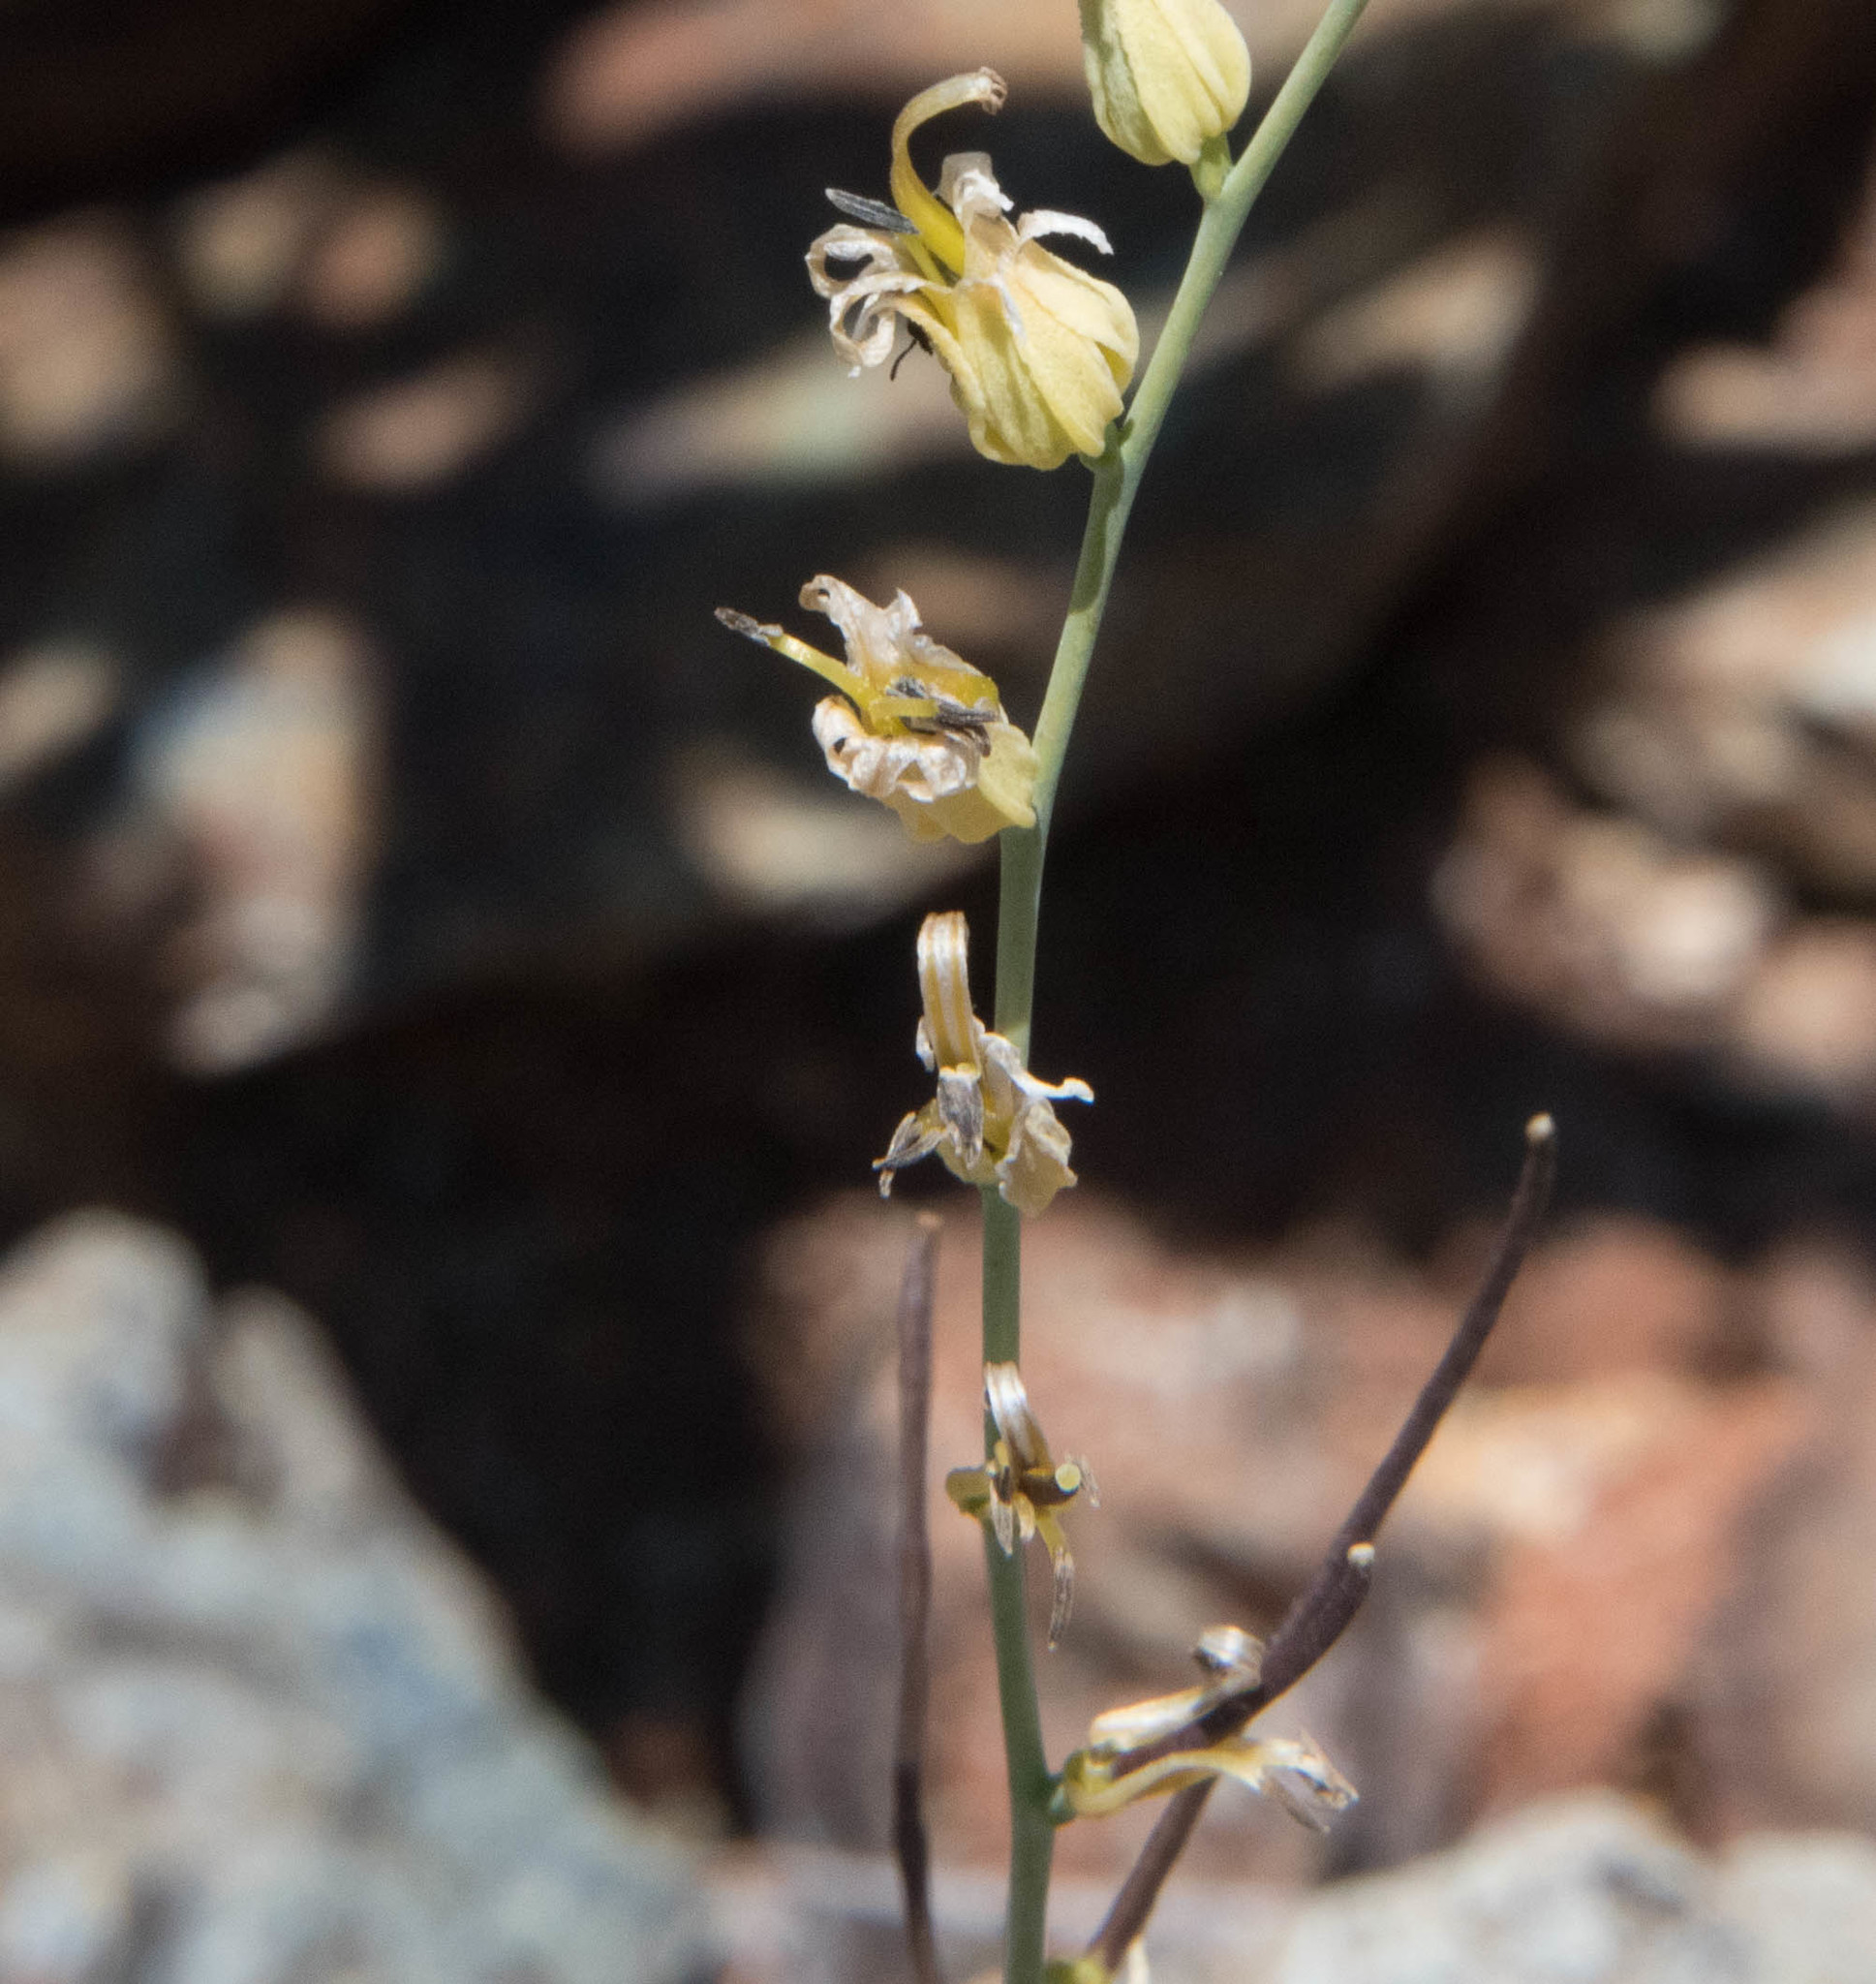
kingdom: Plantae
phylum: Tracheophyta
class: Magnoliopsida
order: Brassicales
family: Brassicaceae
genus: Streptanthus
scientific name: Streptanthus brachiatus
